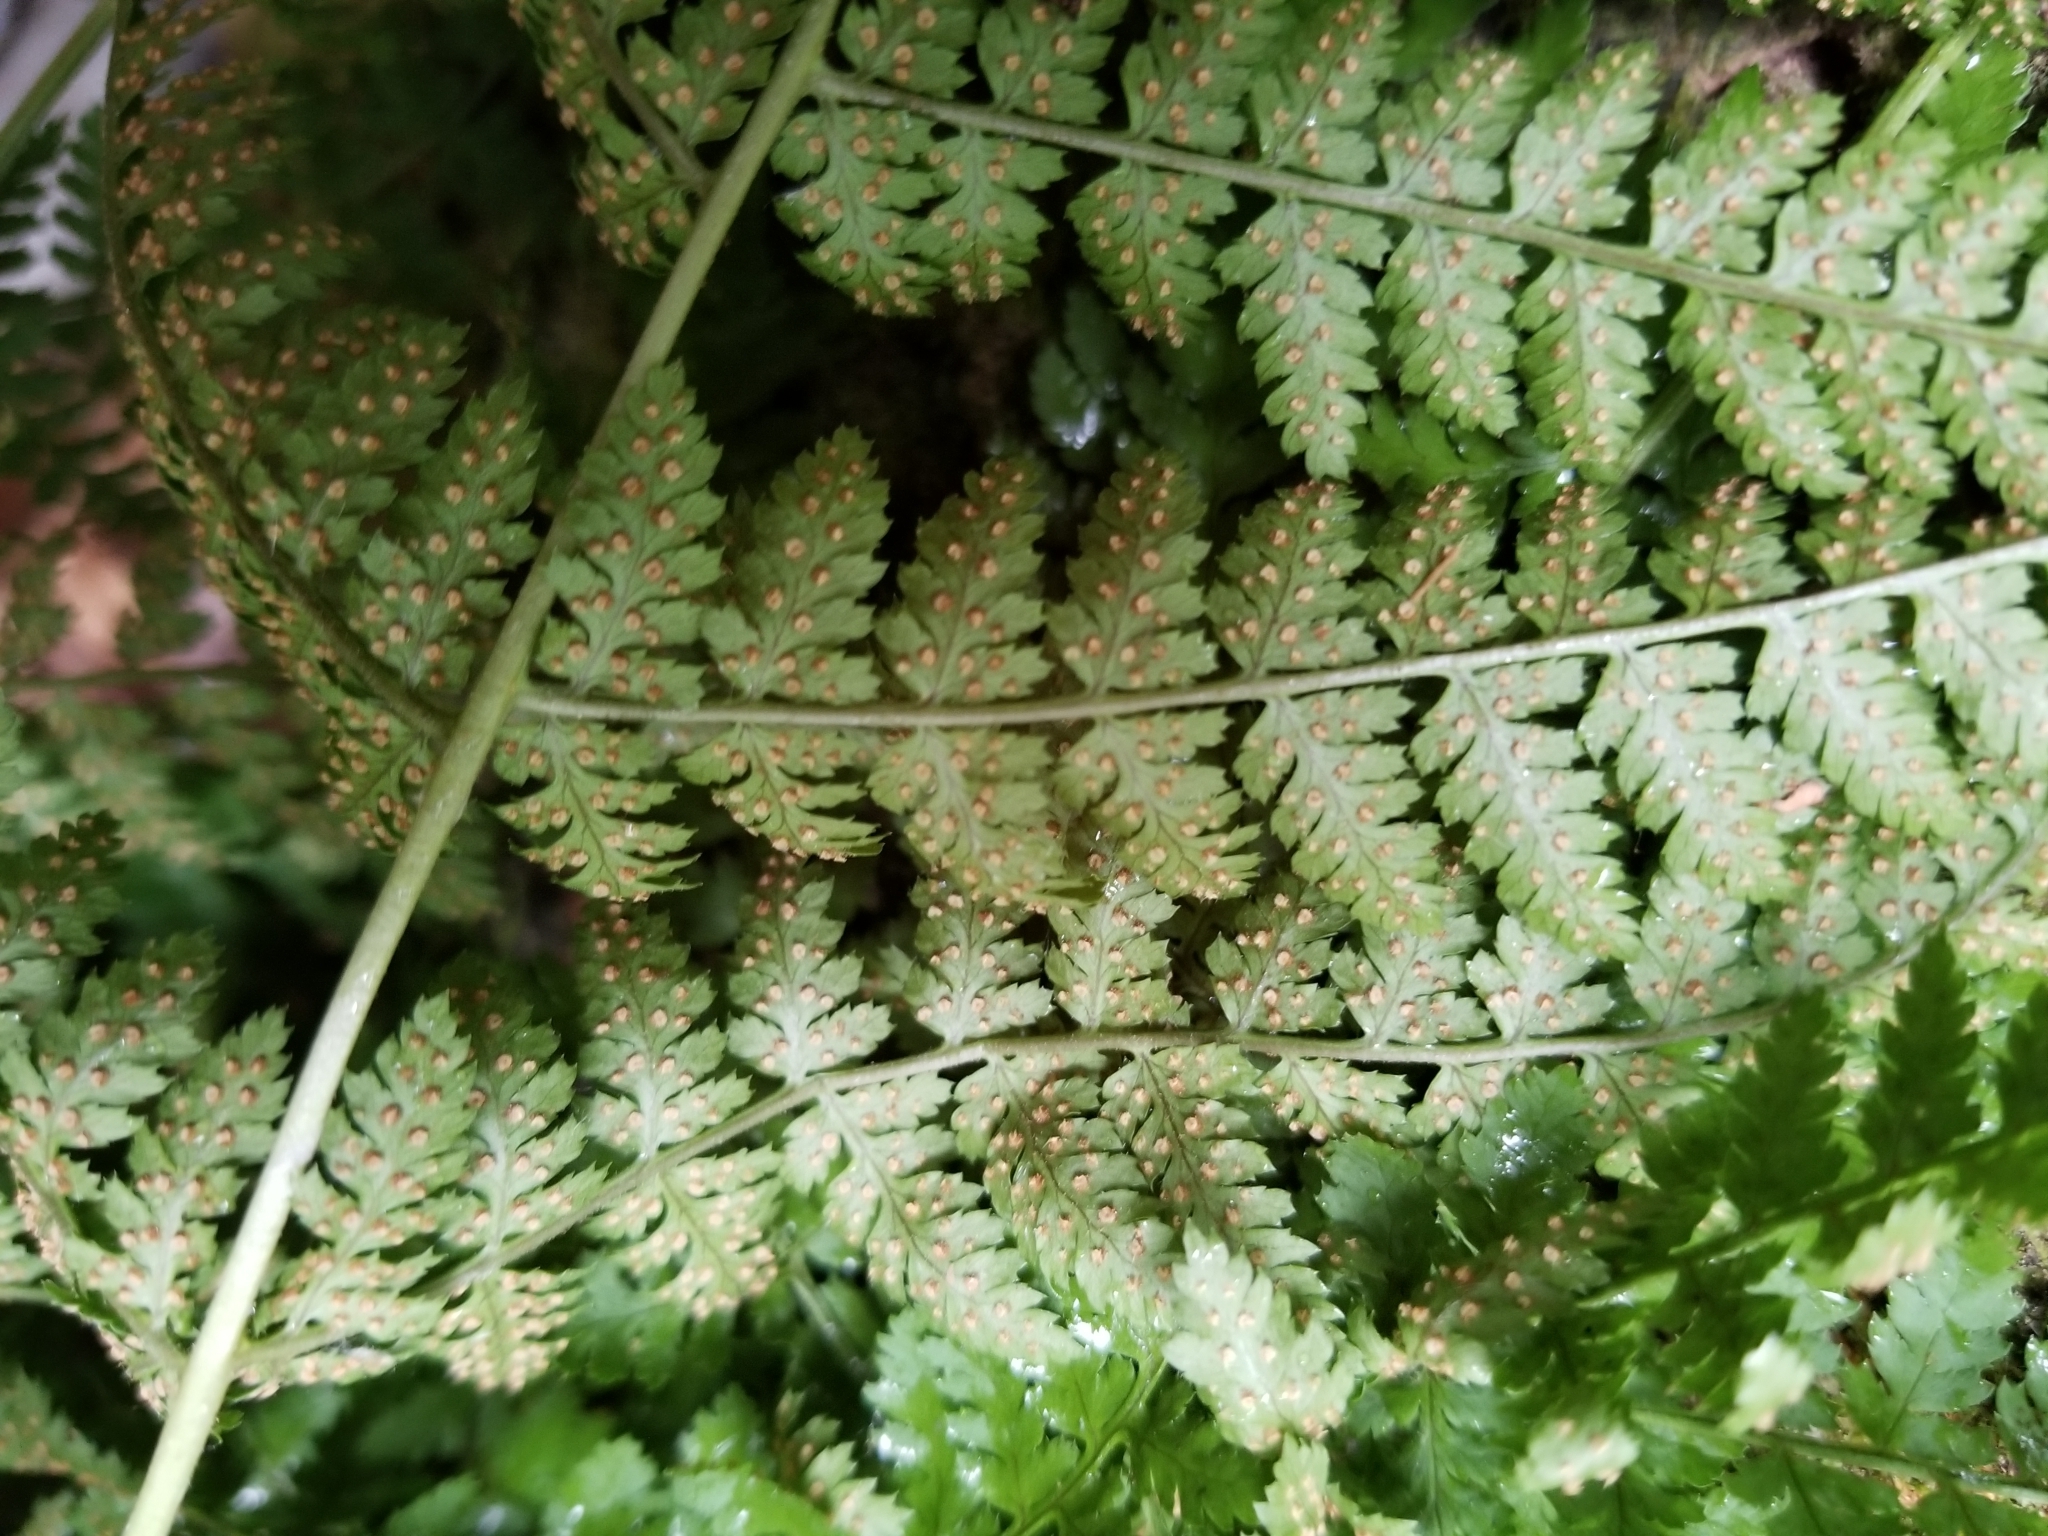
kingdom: Plantae
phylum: Tracheophyta
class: Polypodiopsida
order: Polypodiales
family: Dryopteridaceae
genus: Dryopteris
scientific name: Dryopteris intermedia
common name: Evergreen wood fern
